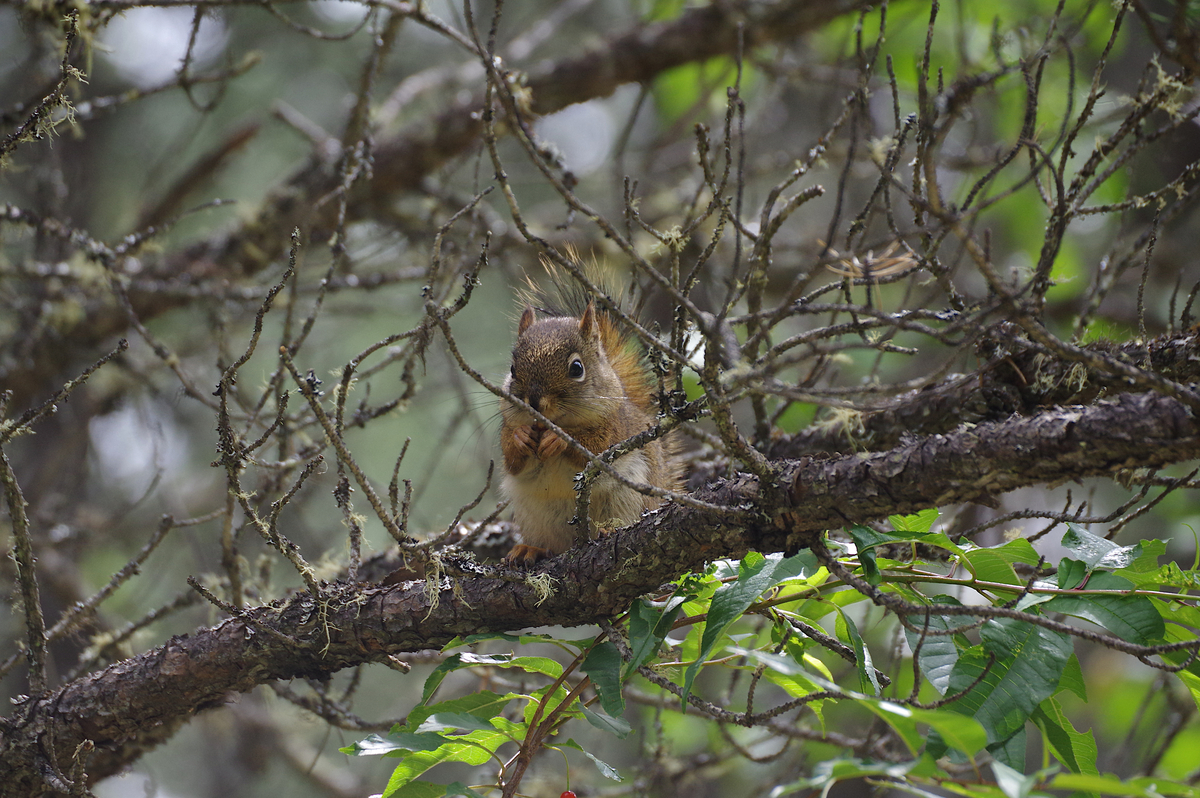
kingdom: Animalia
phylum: Chordata
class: Mammalia
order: Rodentia
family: Sciuridae
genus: Tamiasciurus
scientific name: Tamiasciurus hudsonicus
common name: Red squirrel
